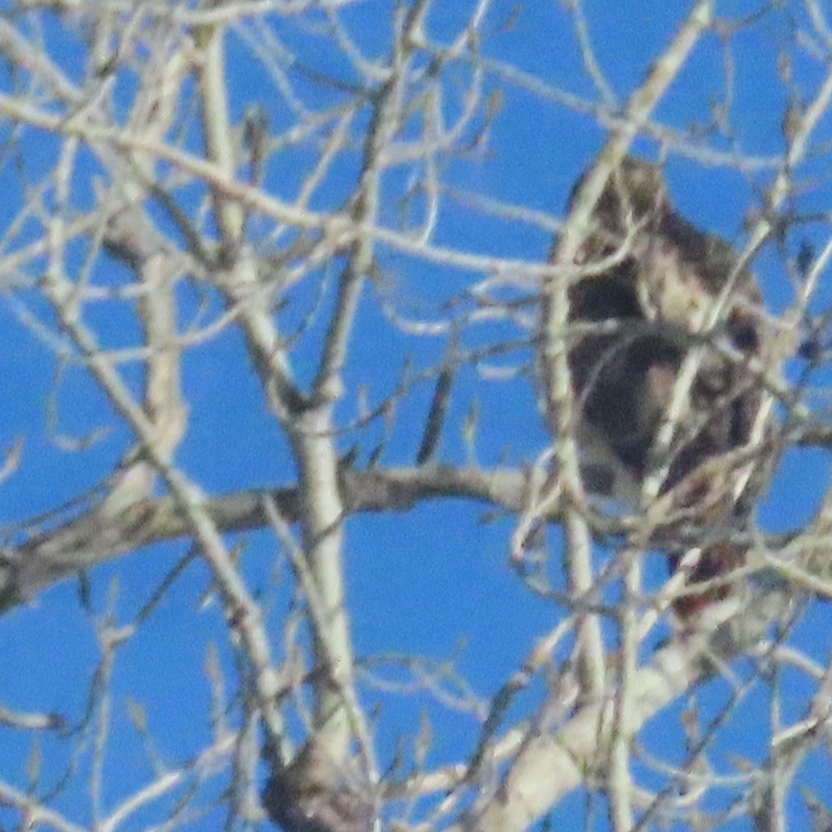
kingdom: Animalia
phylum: Chordata
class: Aves
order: Accipitriformes
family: Accipitridae
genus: Buteo
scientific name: Buteo jamaicensis
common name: Red-tailed hawk
